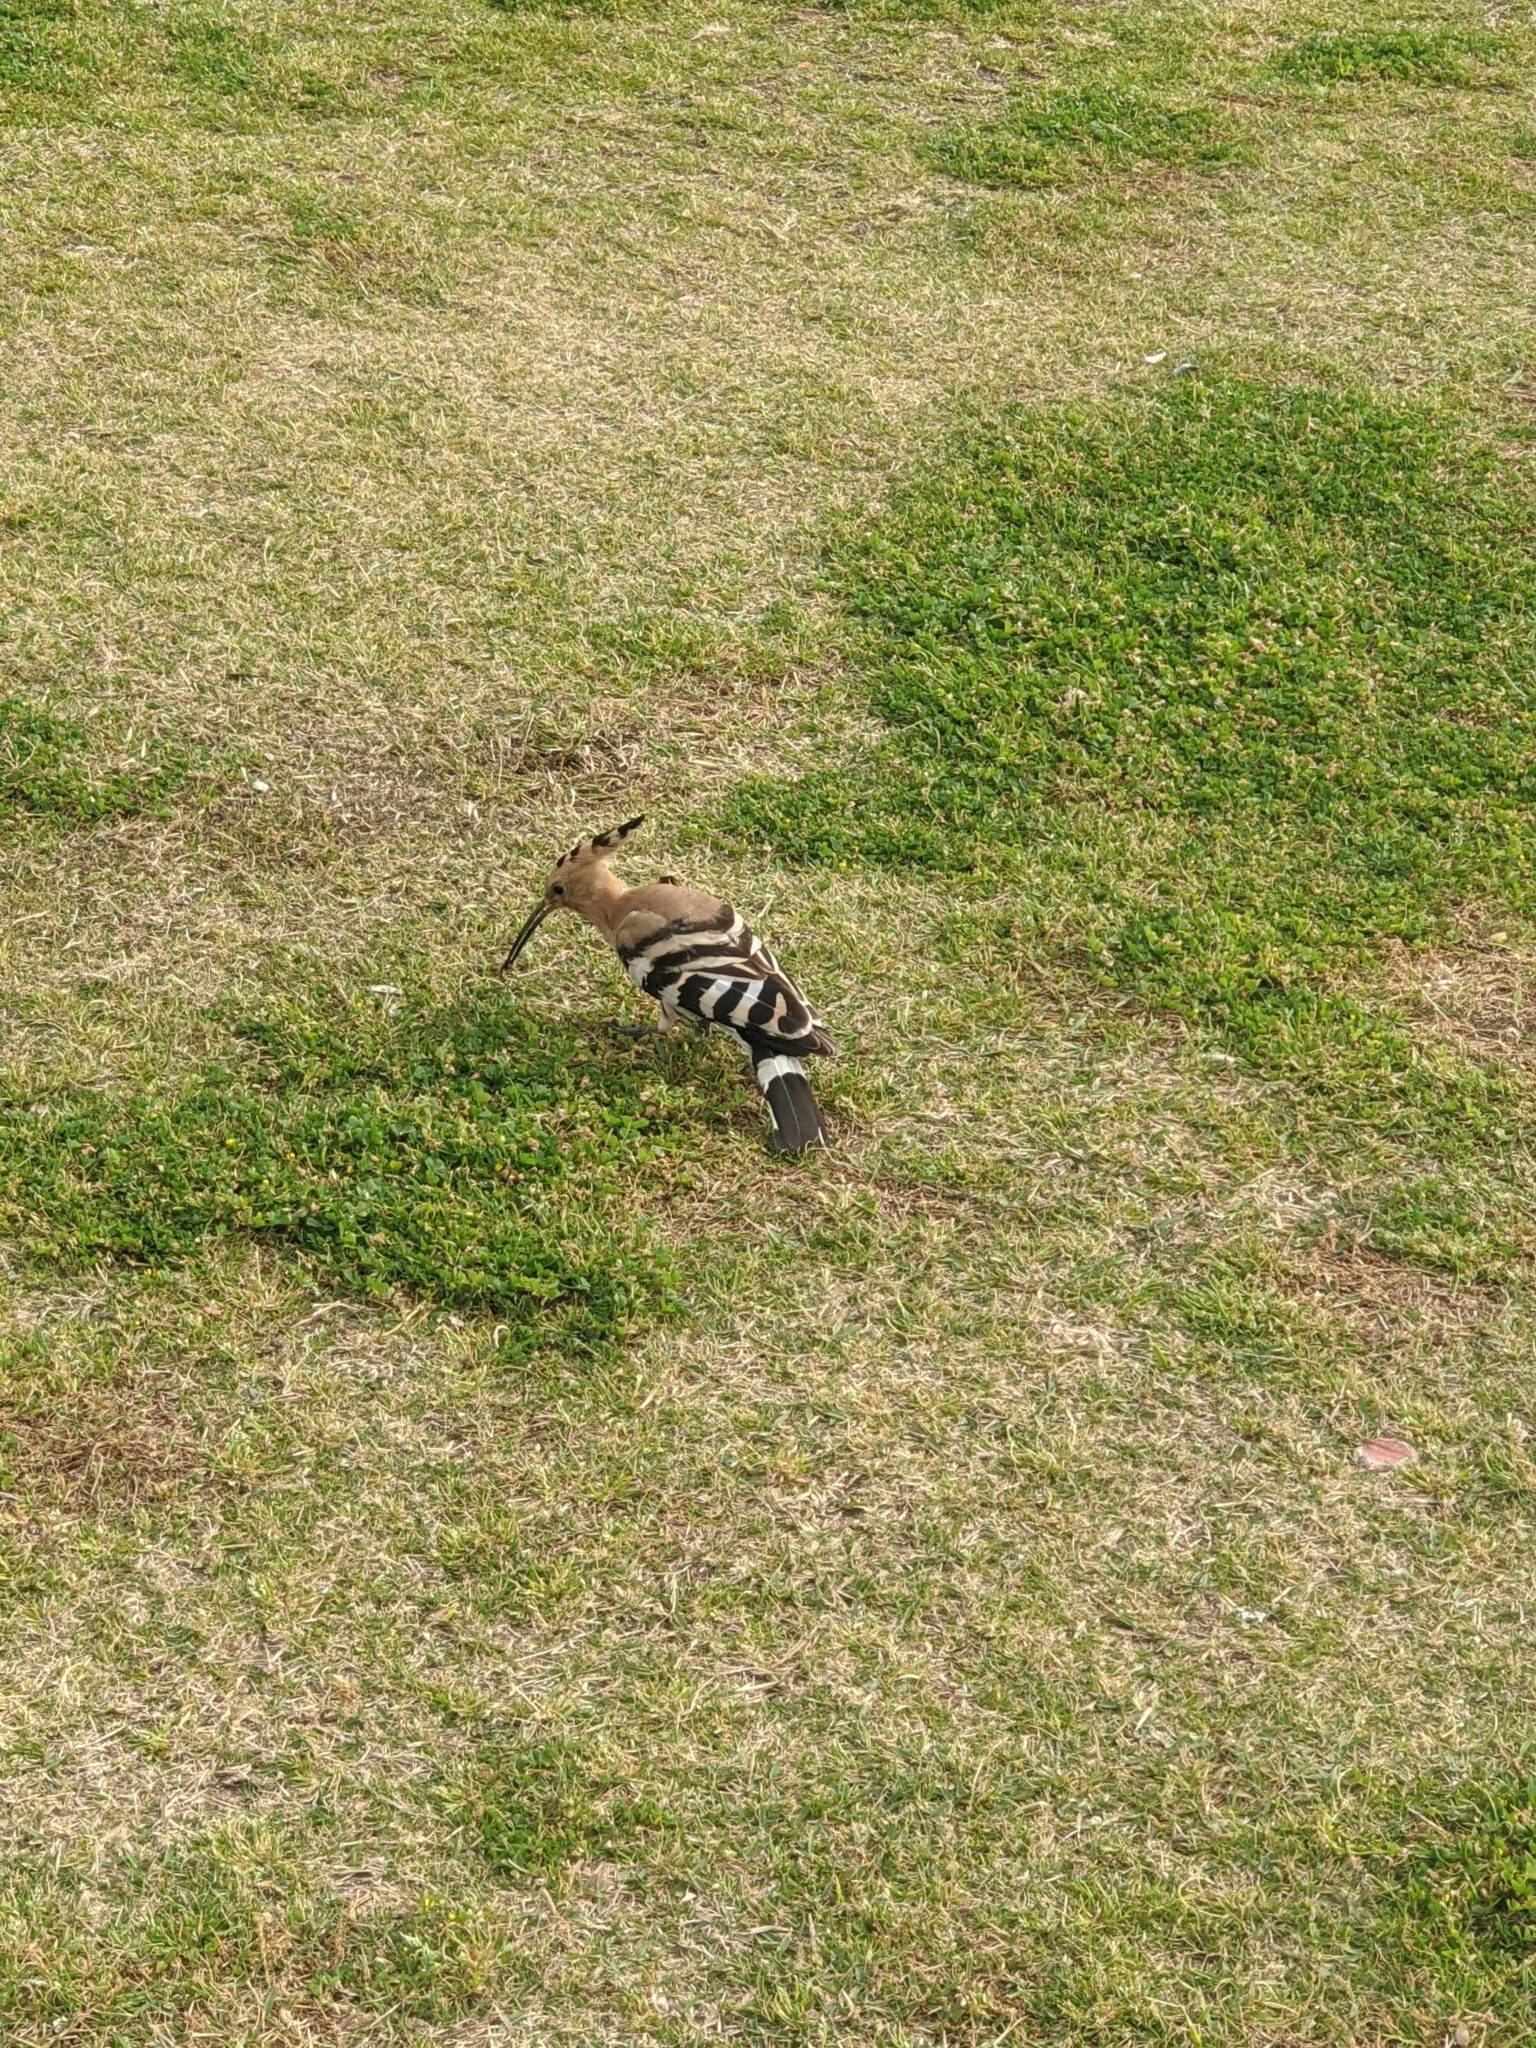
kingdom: Animalia
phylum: Chordata
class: Aves
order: Bucerotiformes
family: Upupidae
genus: Upupa
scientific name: Upupa epops
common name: Eurasian hoopoe
